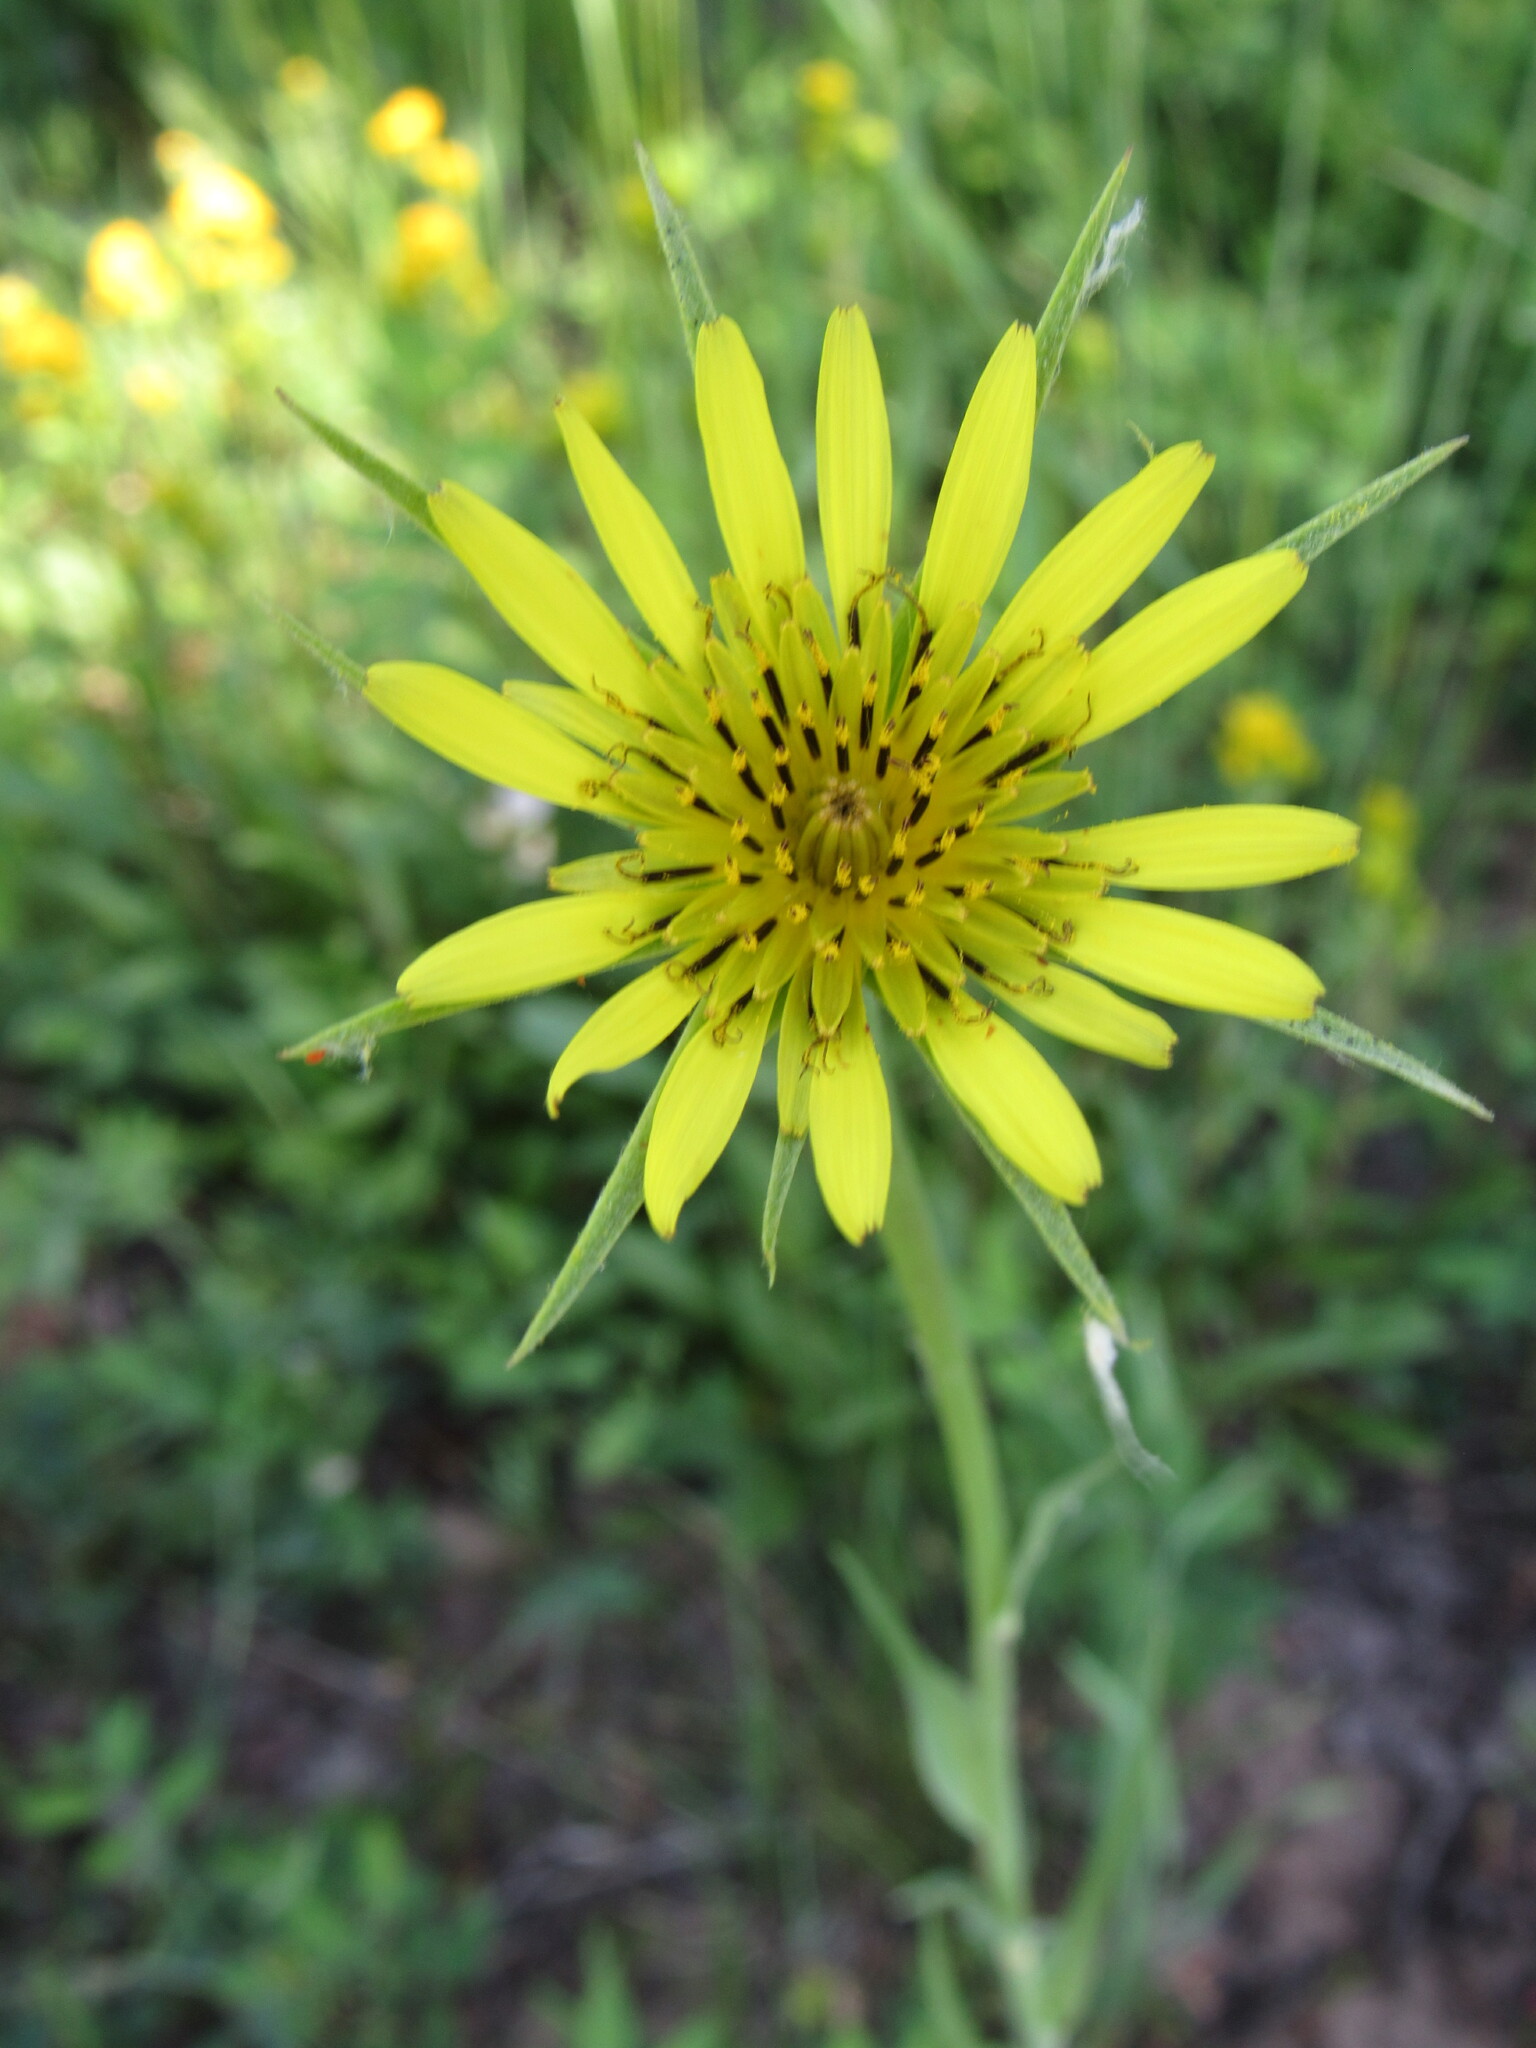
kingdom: Plantae
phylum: Tracheophyta
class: Magnoliopsida
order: Asterales
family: Asteraceae
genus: Tragopogon
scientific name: Tragopogon dubius
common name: Yellow salsify
